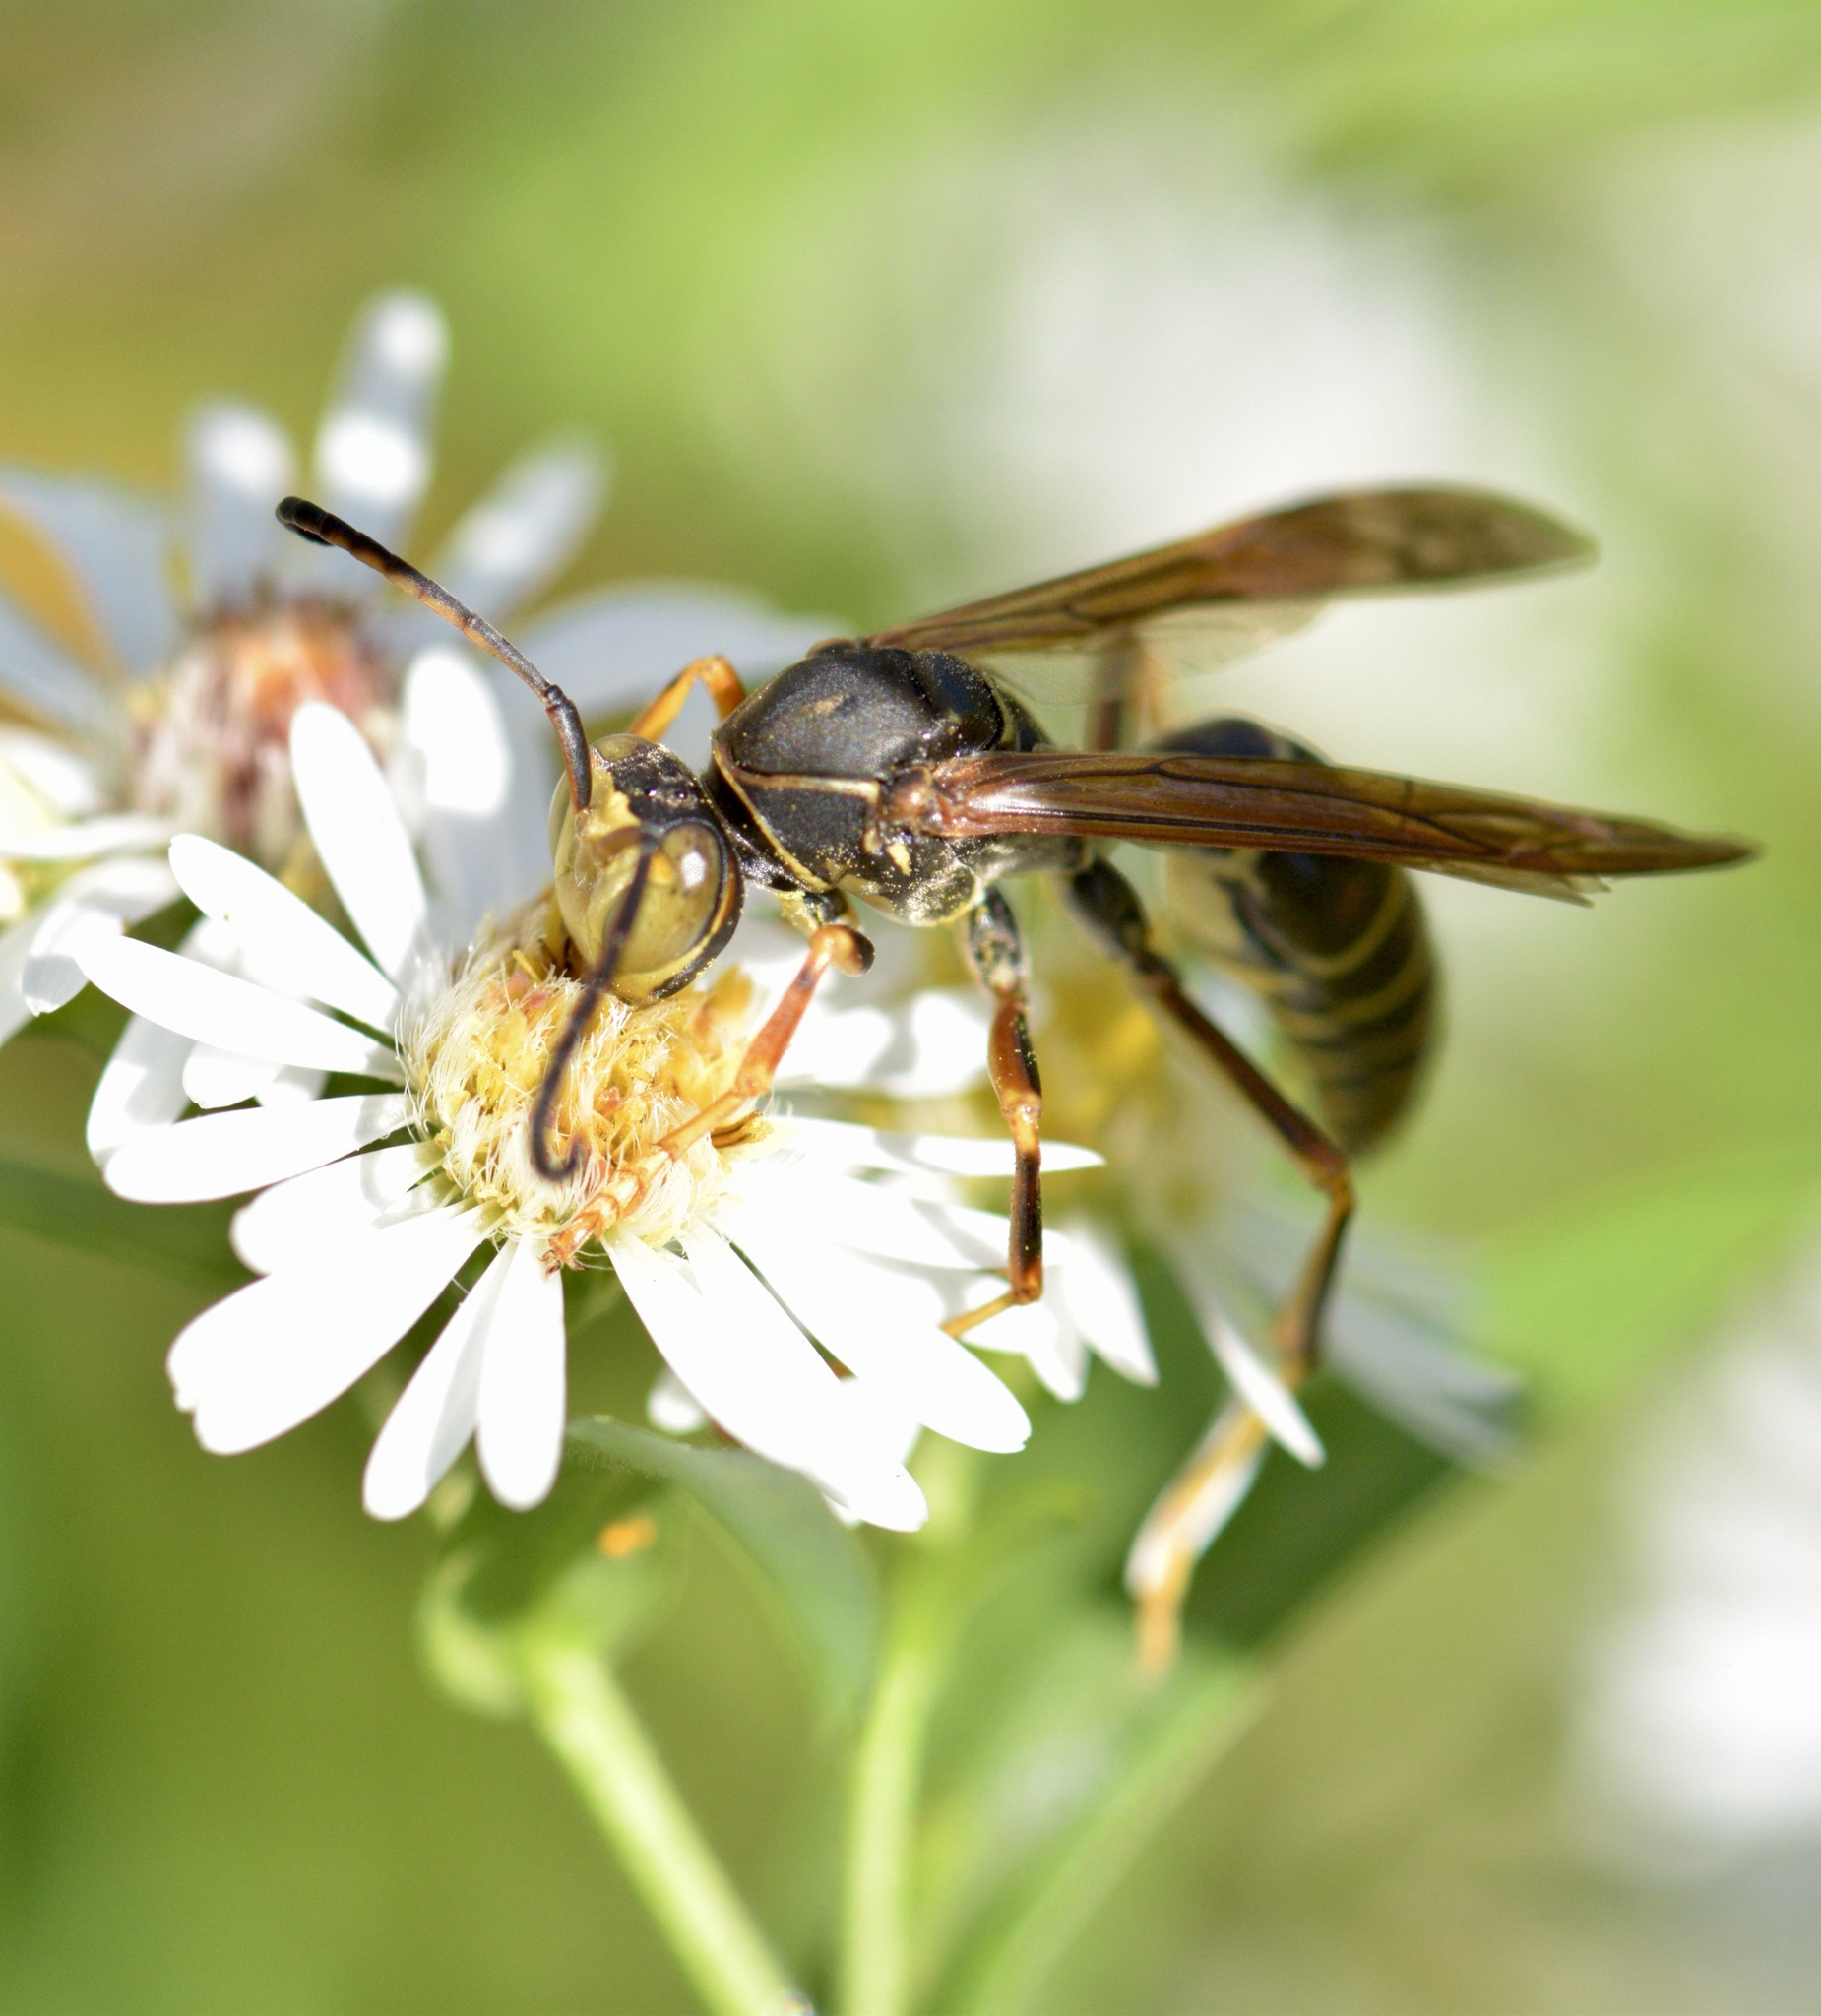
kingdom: Animalia
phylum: Arthropoda
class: Insecta
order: Hymenoptera
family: Eumenidae
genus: Polistes
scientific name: Polistes fuscatus
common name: Dark paper wasp
